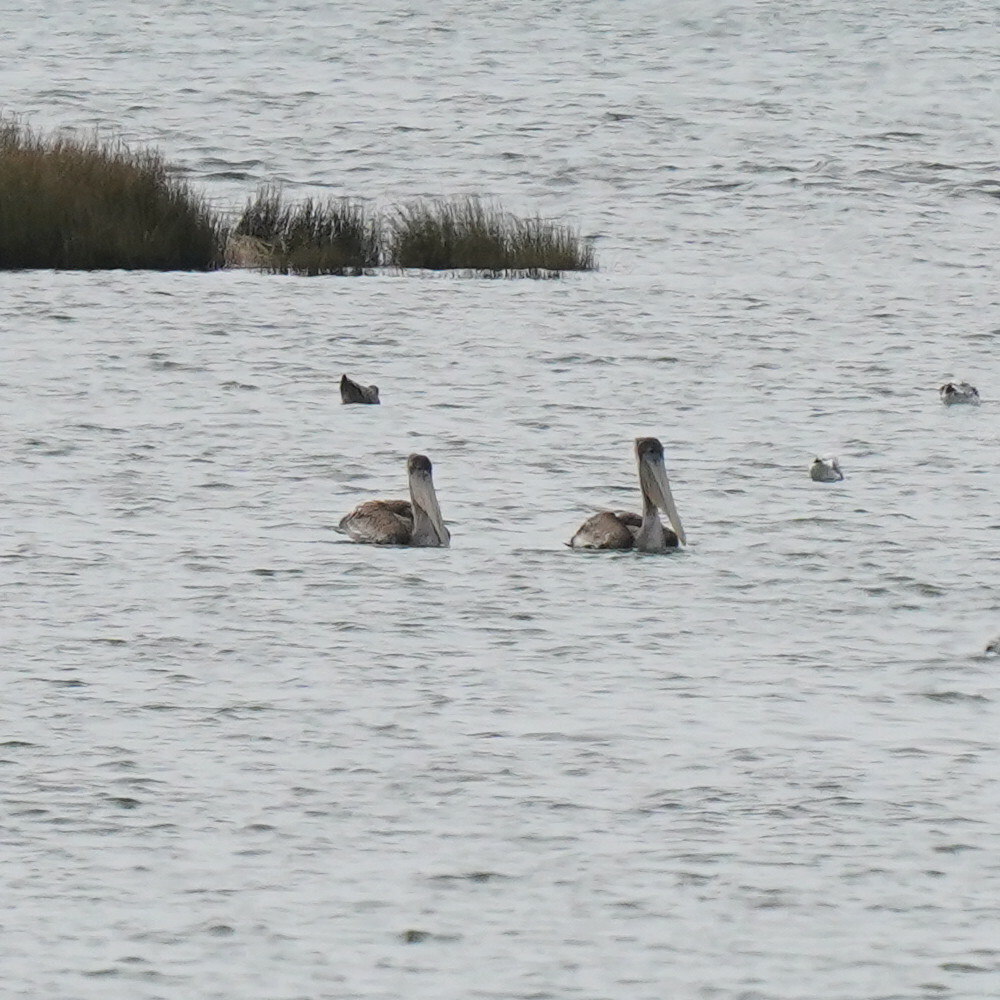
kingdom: Animalia
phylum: Chordata
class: Aves
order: Pelecaniformes
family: Pelecanidae
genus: Pelecanus
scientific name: Pelecanus occidentalis
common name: Brown pelican
